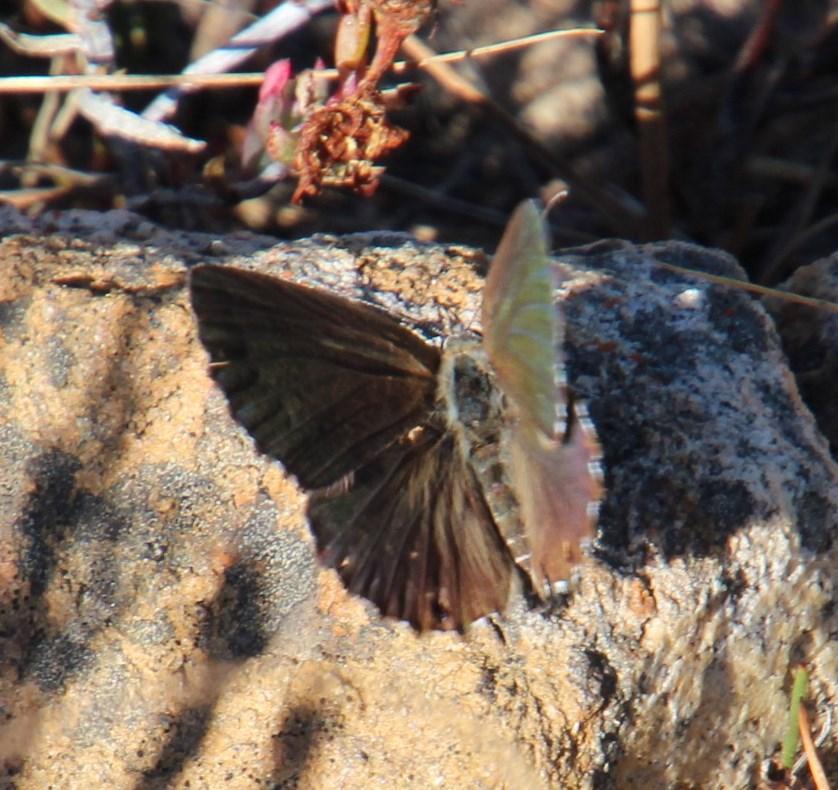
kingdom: Animalia
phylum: Arthropoda
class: Insecta
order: Lepidoptera
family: Lycaenidae
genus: Cacyreus
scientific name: Cacyreus marshalli
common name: Geranium bronze
